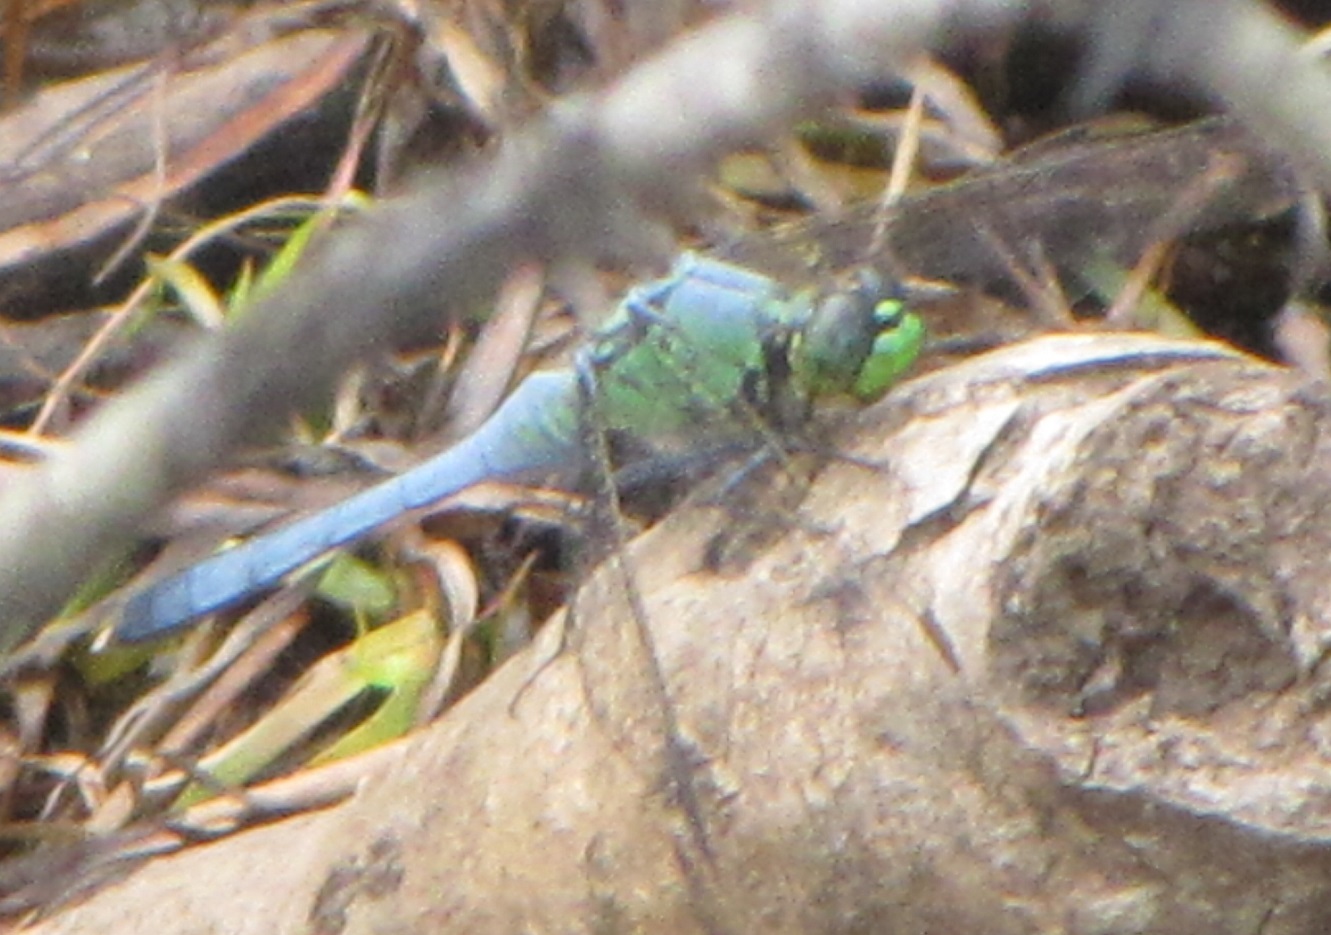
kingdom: Animalia
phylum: Arthropoda
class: Insecta
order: Odonata
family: Libellulidae
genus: Erythemis
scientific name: Erythemis simplicicollis
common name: Eastern pondhawk
